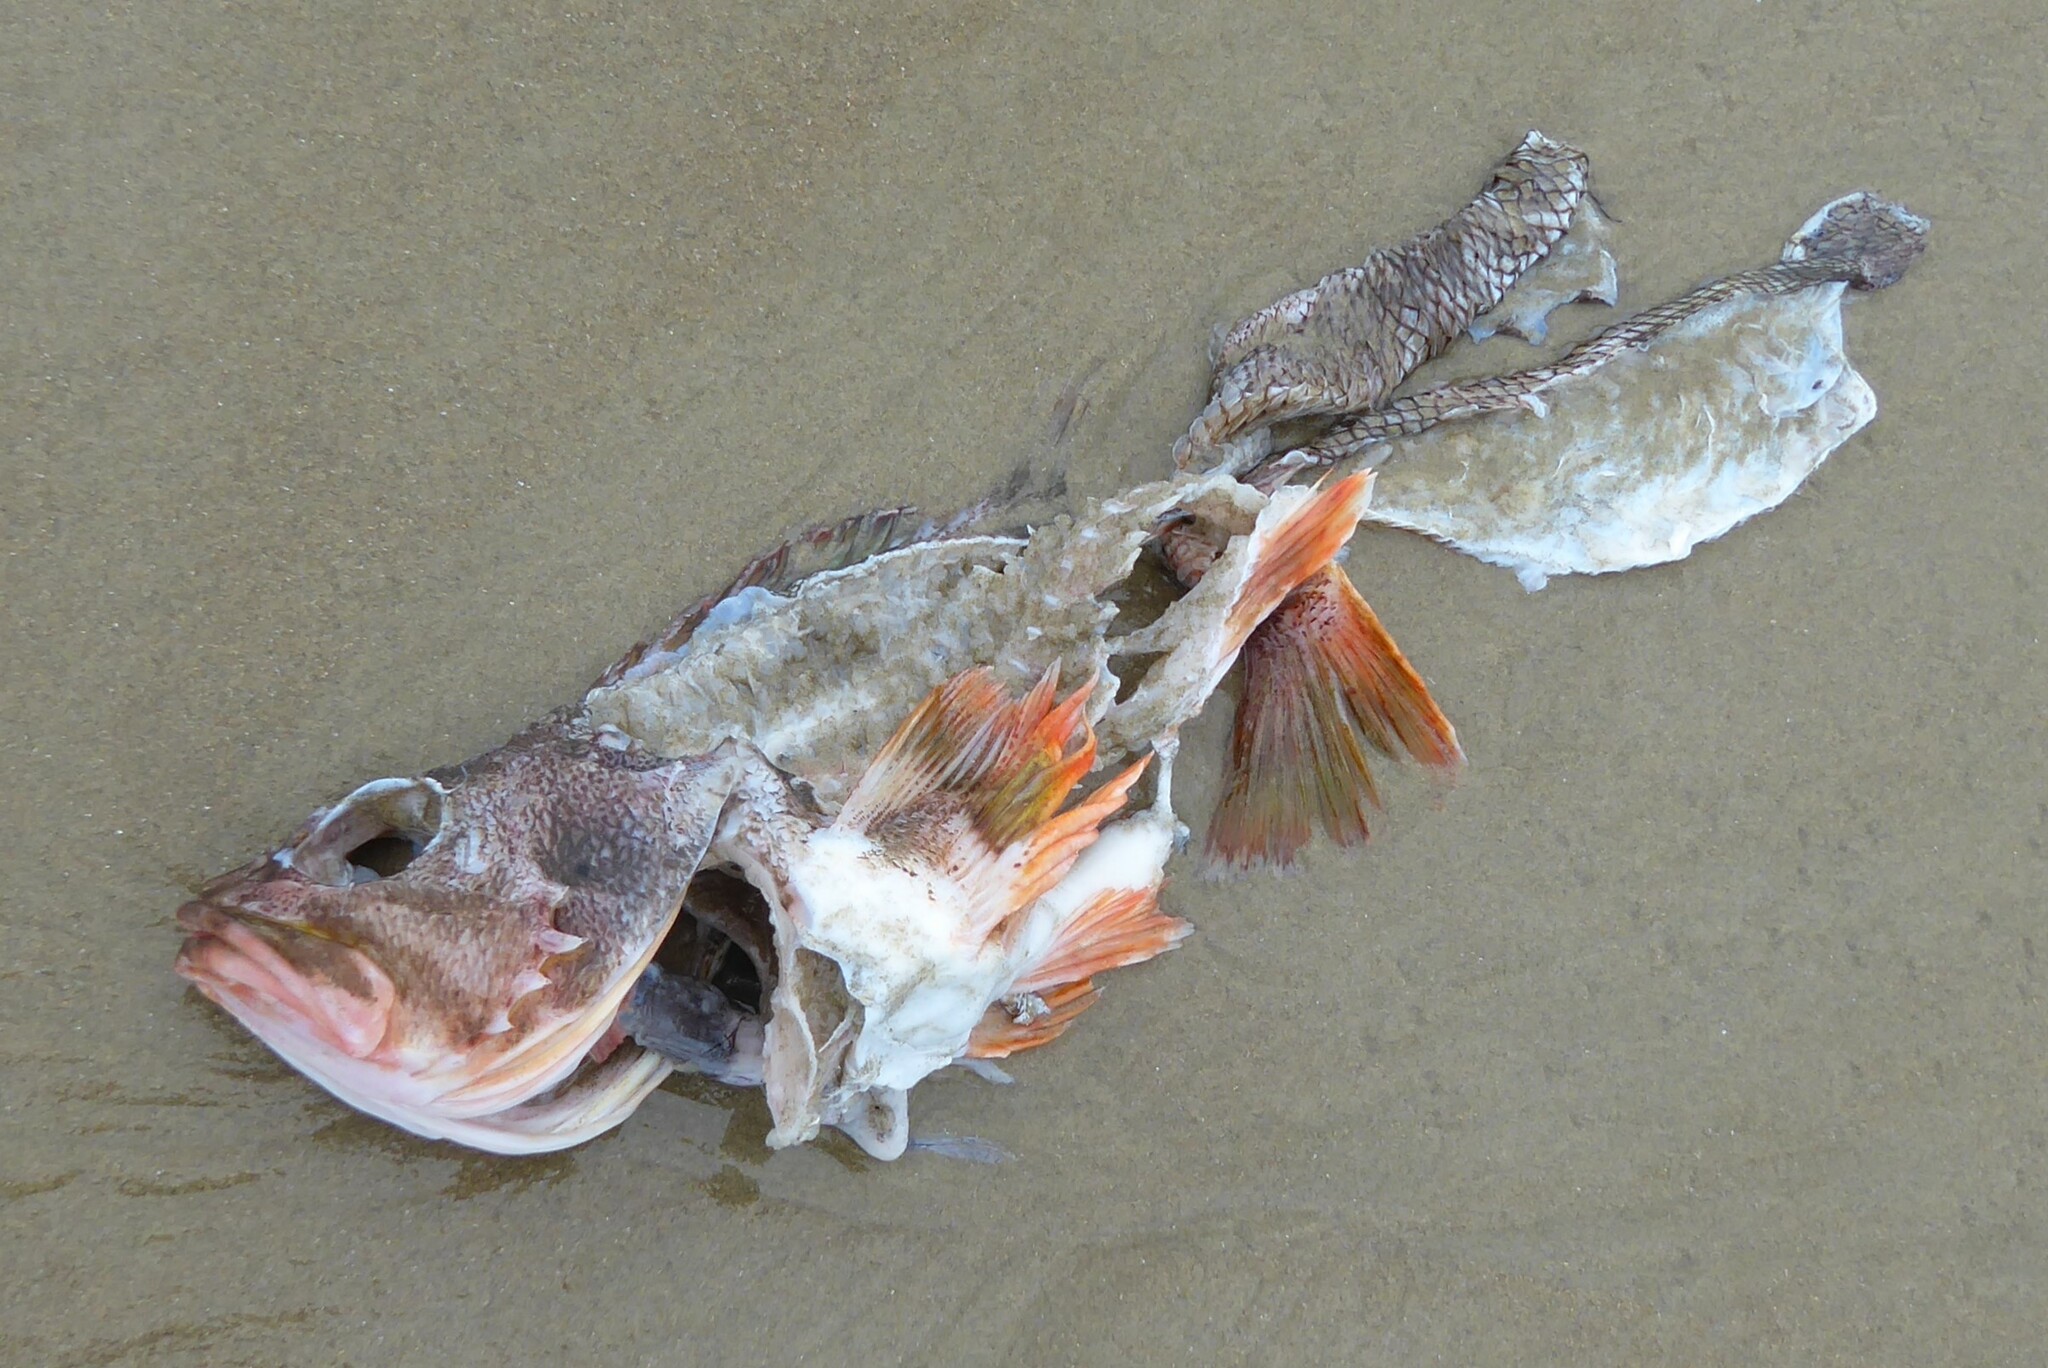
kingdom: Animalia
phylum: Chordata
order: Scorpaeniformes
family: Sebastidae
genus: Helicolenus
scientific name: Helicolenus percoides
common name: Jock stewart
